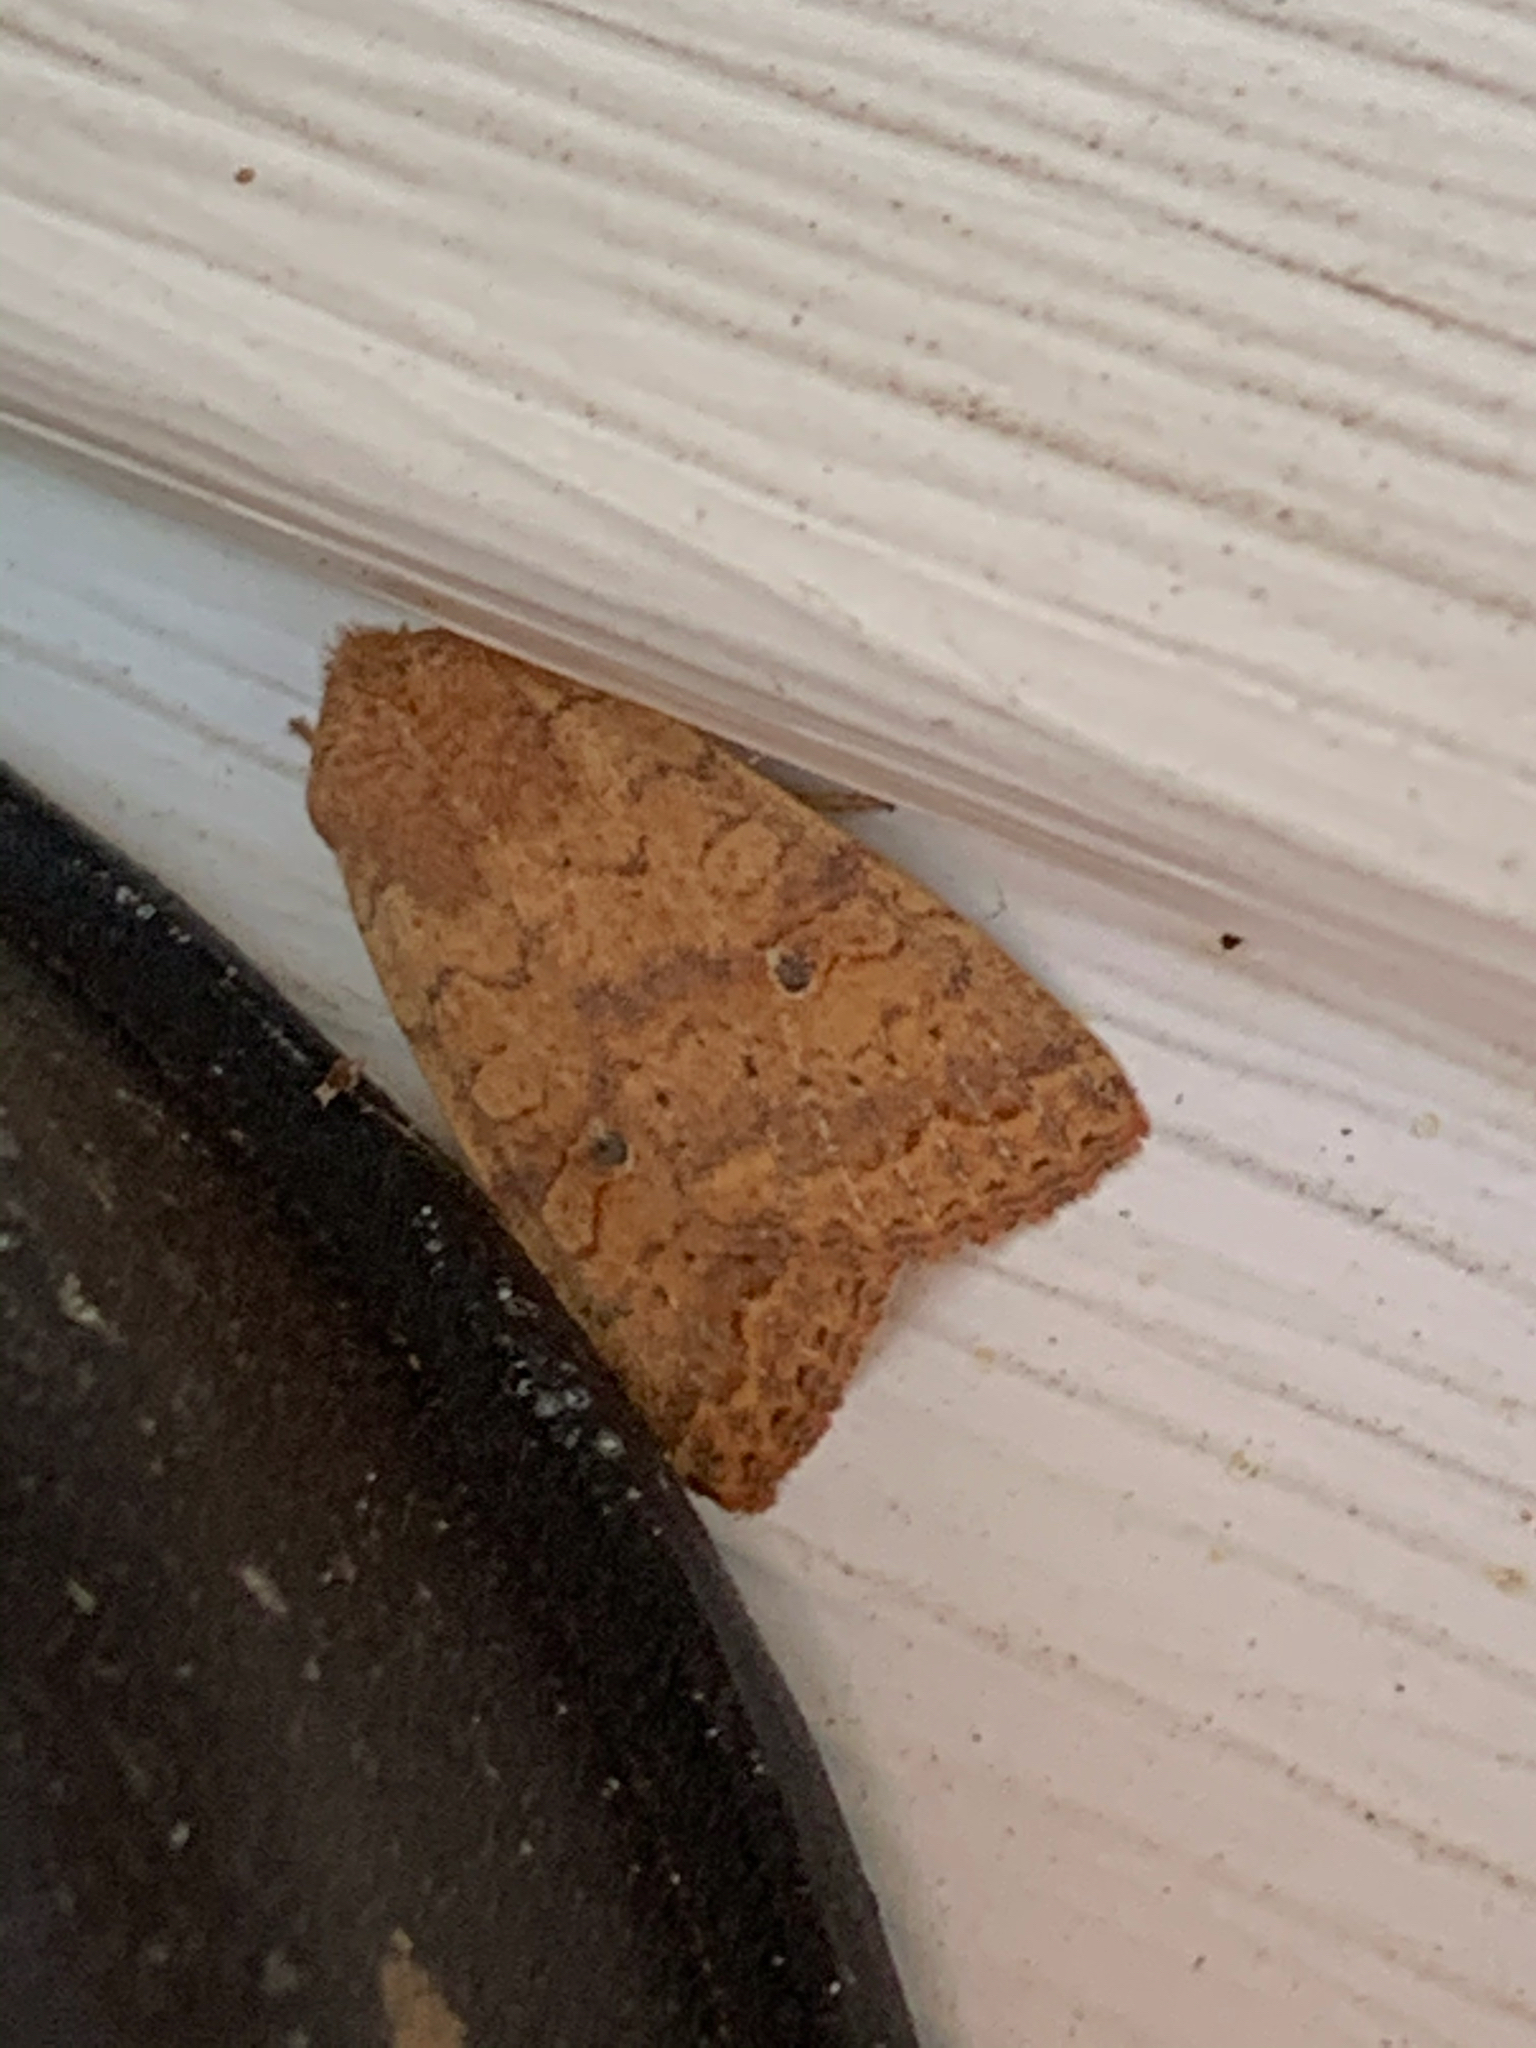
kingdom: Animalia
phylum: Arthropoda
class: Insecta
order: Lepidoptera
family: Noctuidae
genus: Agrochola
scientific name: Agrochola bicolorago
